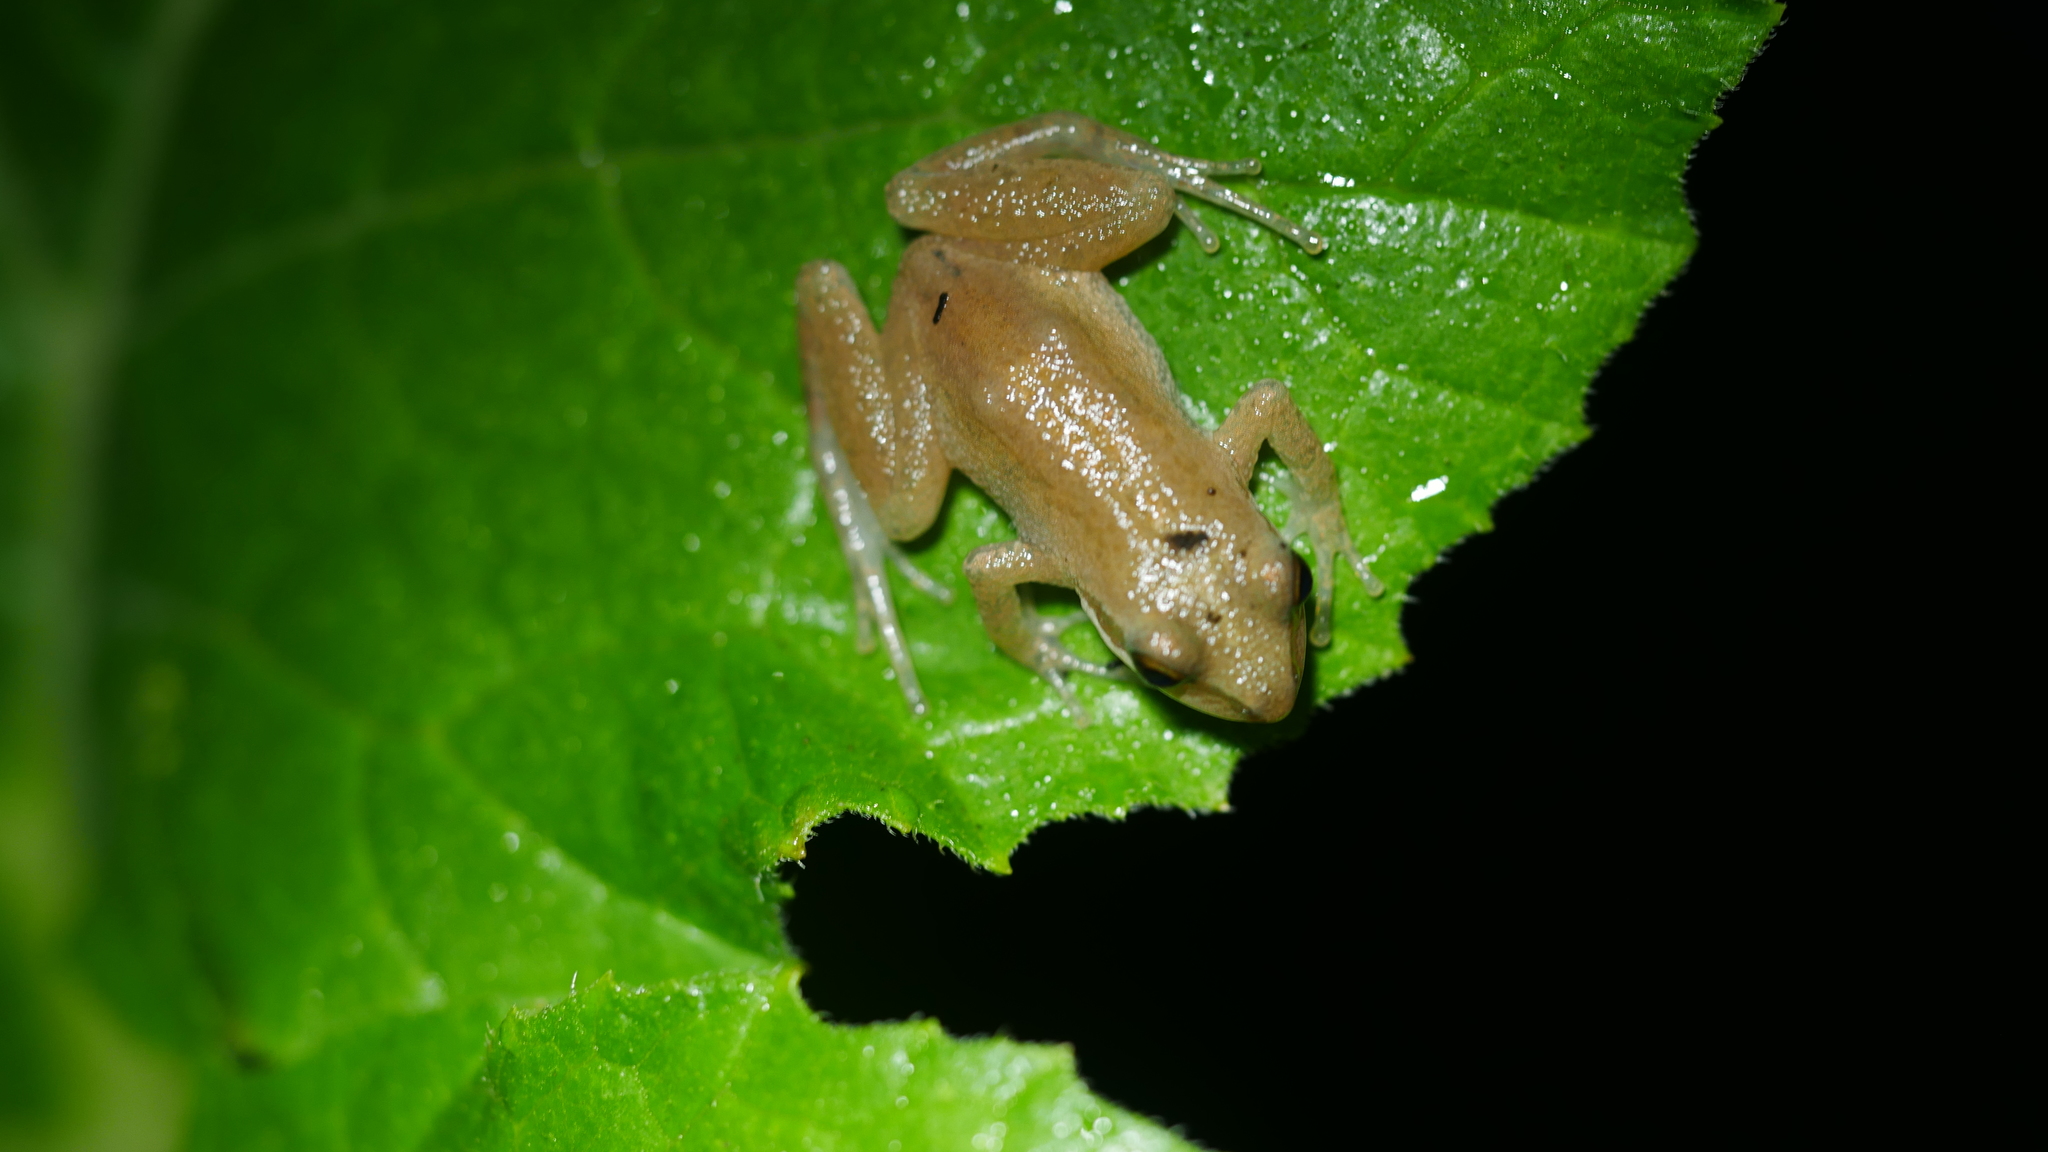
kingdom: Animalia
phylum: Chordata
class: Amphibia
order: Anura
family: Hylidae
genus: Pseudacris
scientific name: Pseudacris kalmi
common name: New jersey chorus frog
